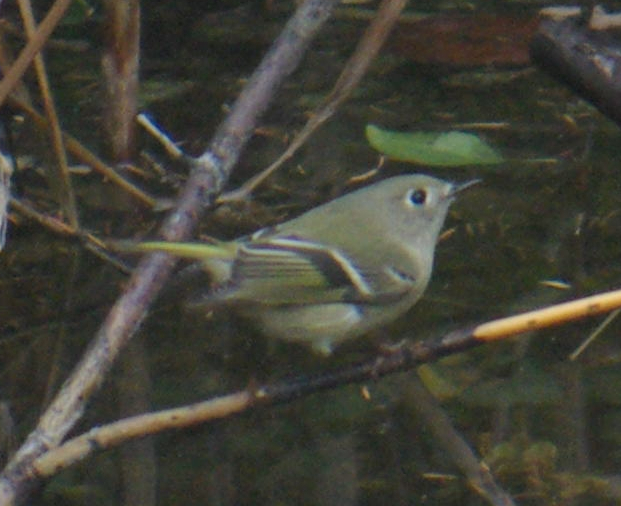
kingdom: Animalia
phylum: Chordata
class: Aves
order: Passeriformes
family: Regulidae
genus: Regulus
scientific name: Regulus calendula
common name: Ruby-crowned kinglet
